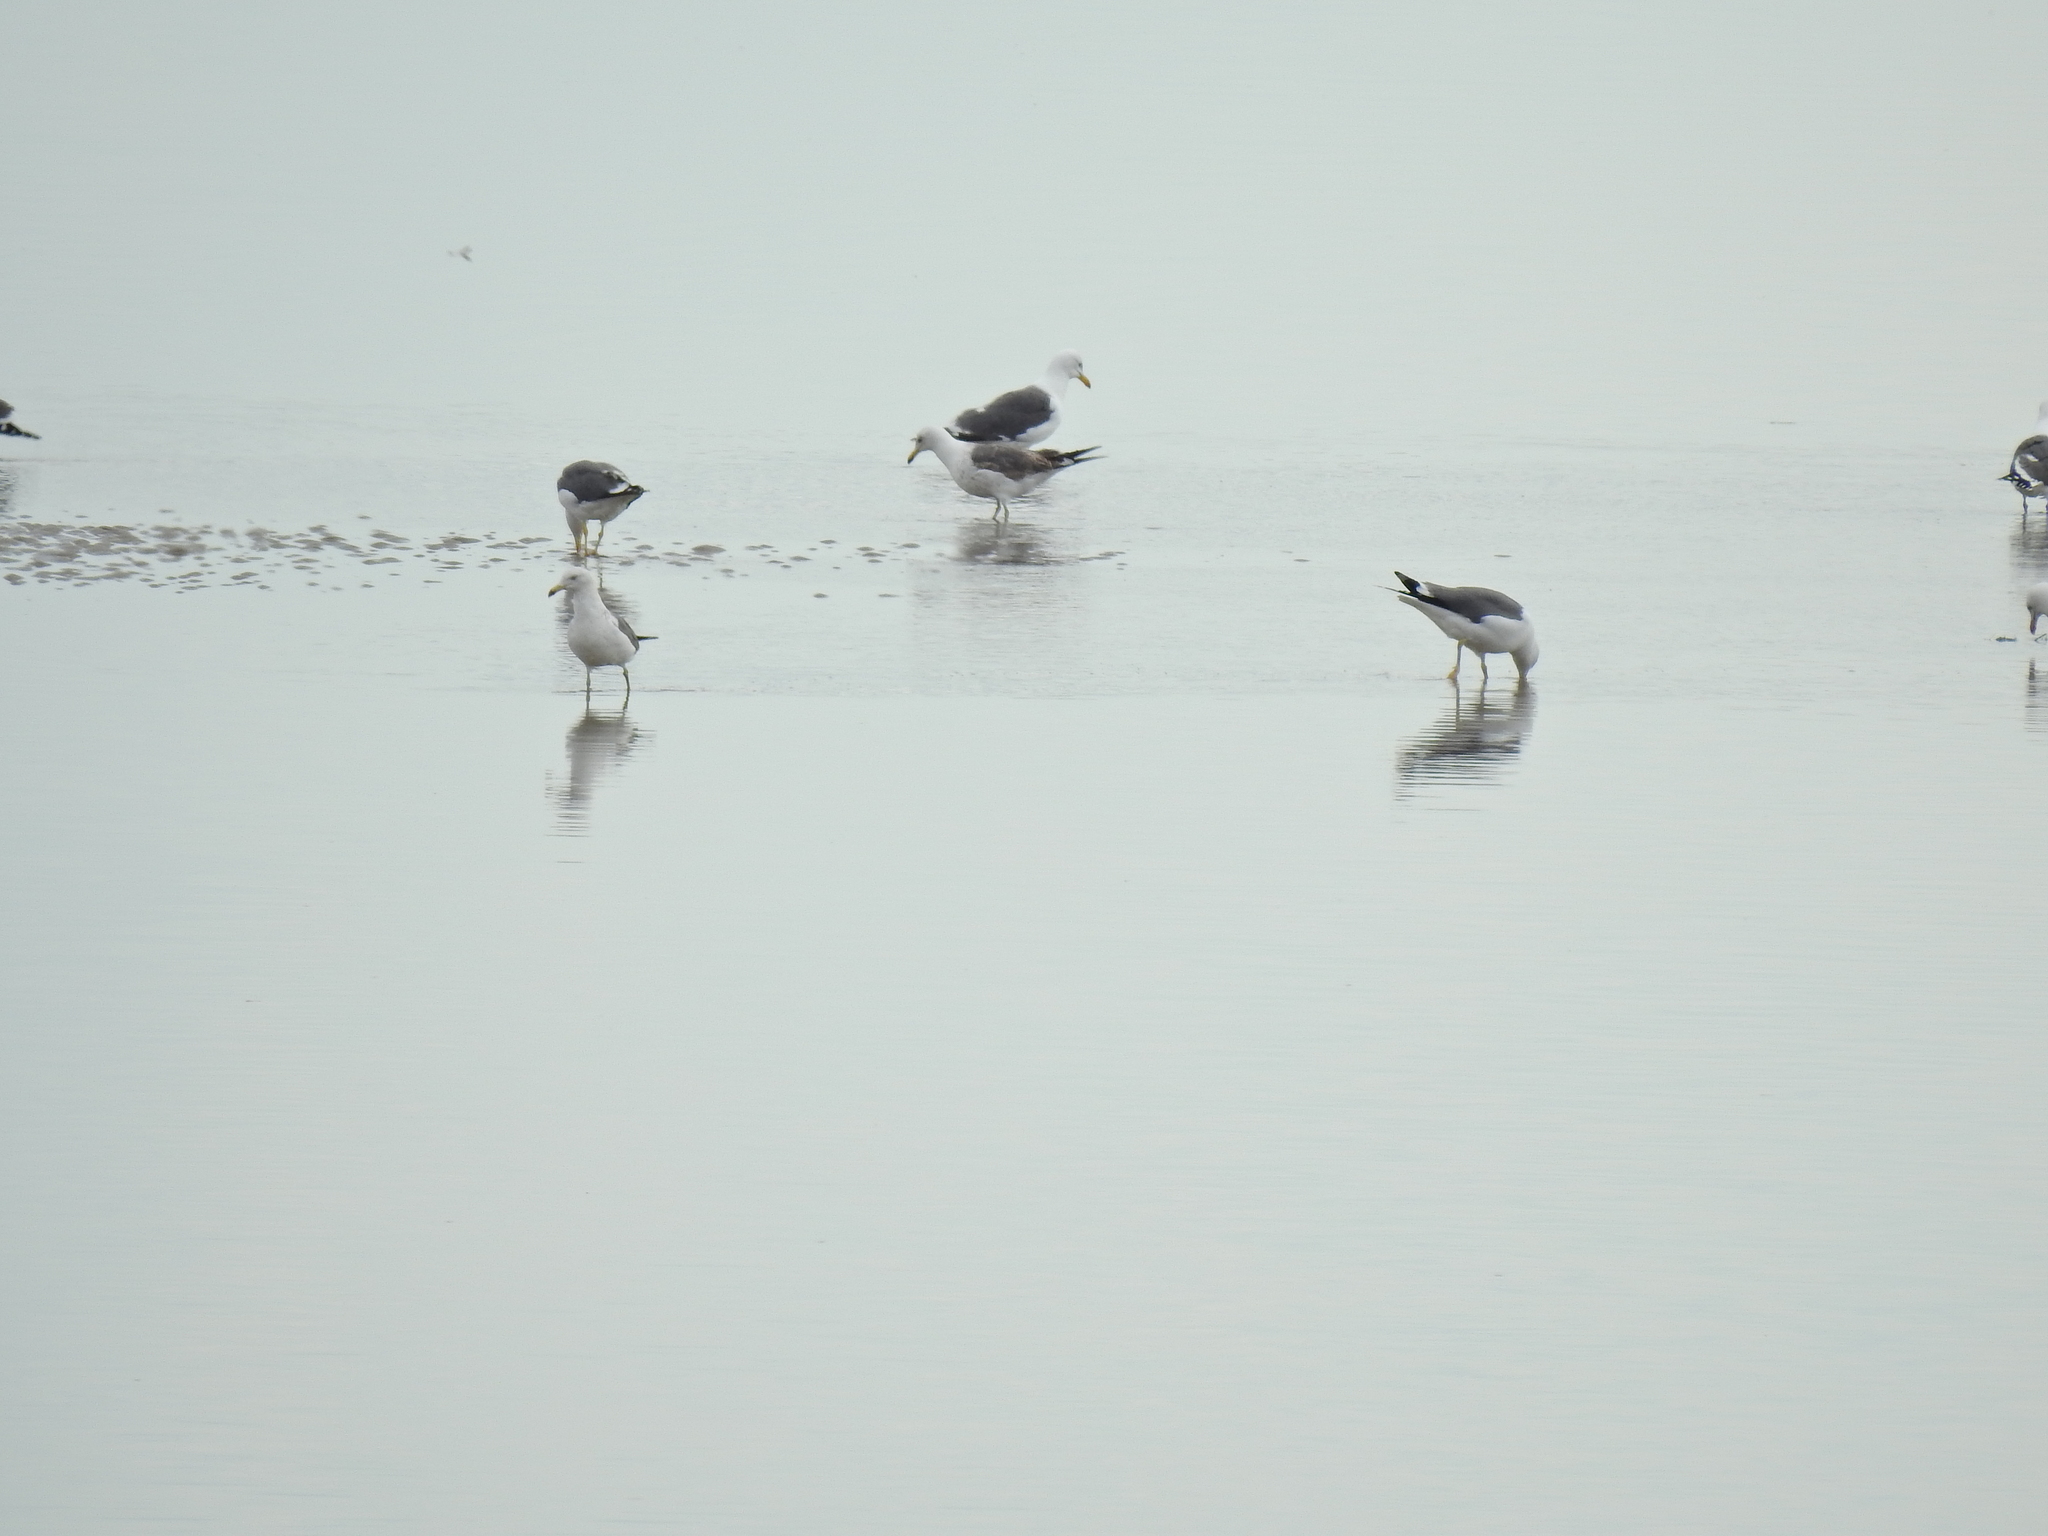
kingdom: Animalia
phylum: Chordata
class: Aves
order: Charadriiformes
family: Laridae
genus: Larus
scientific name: Larus fuscus
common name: Lesser black-backed gull
